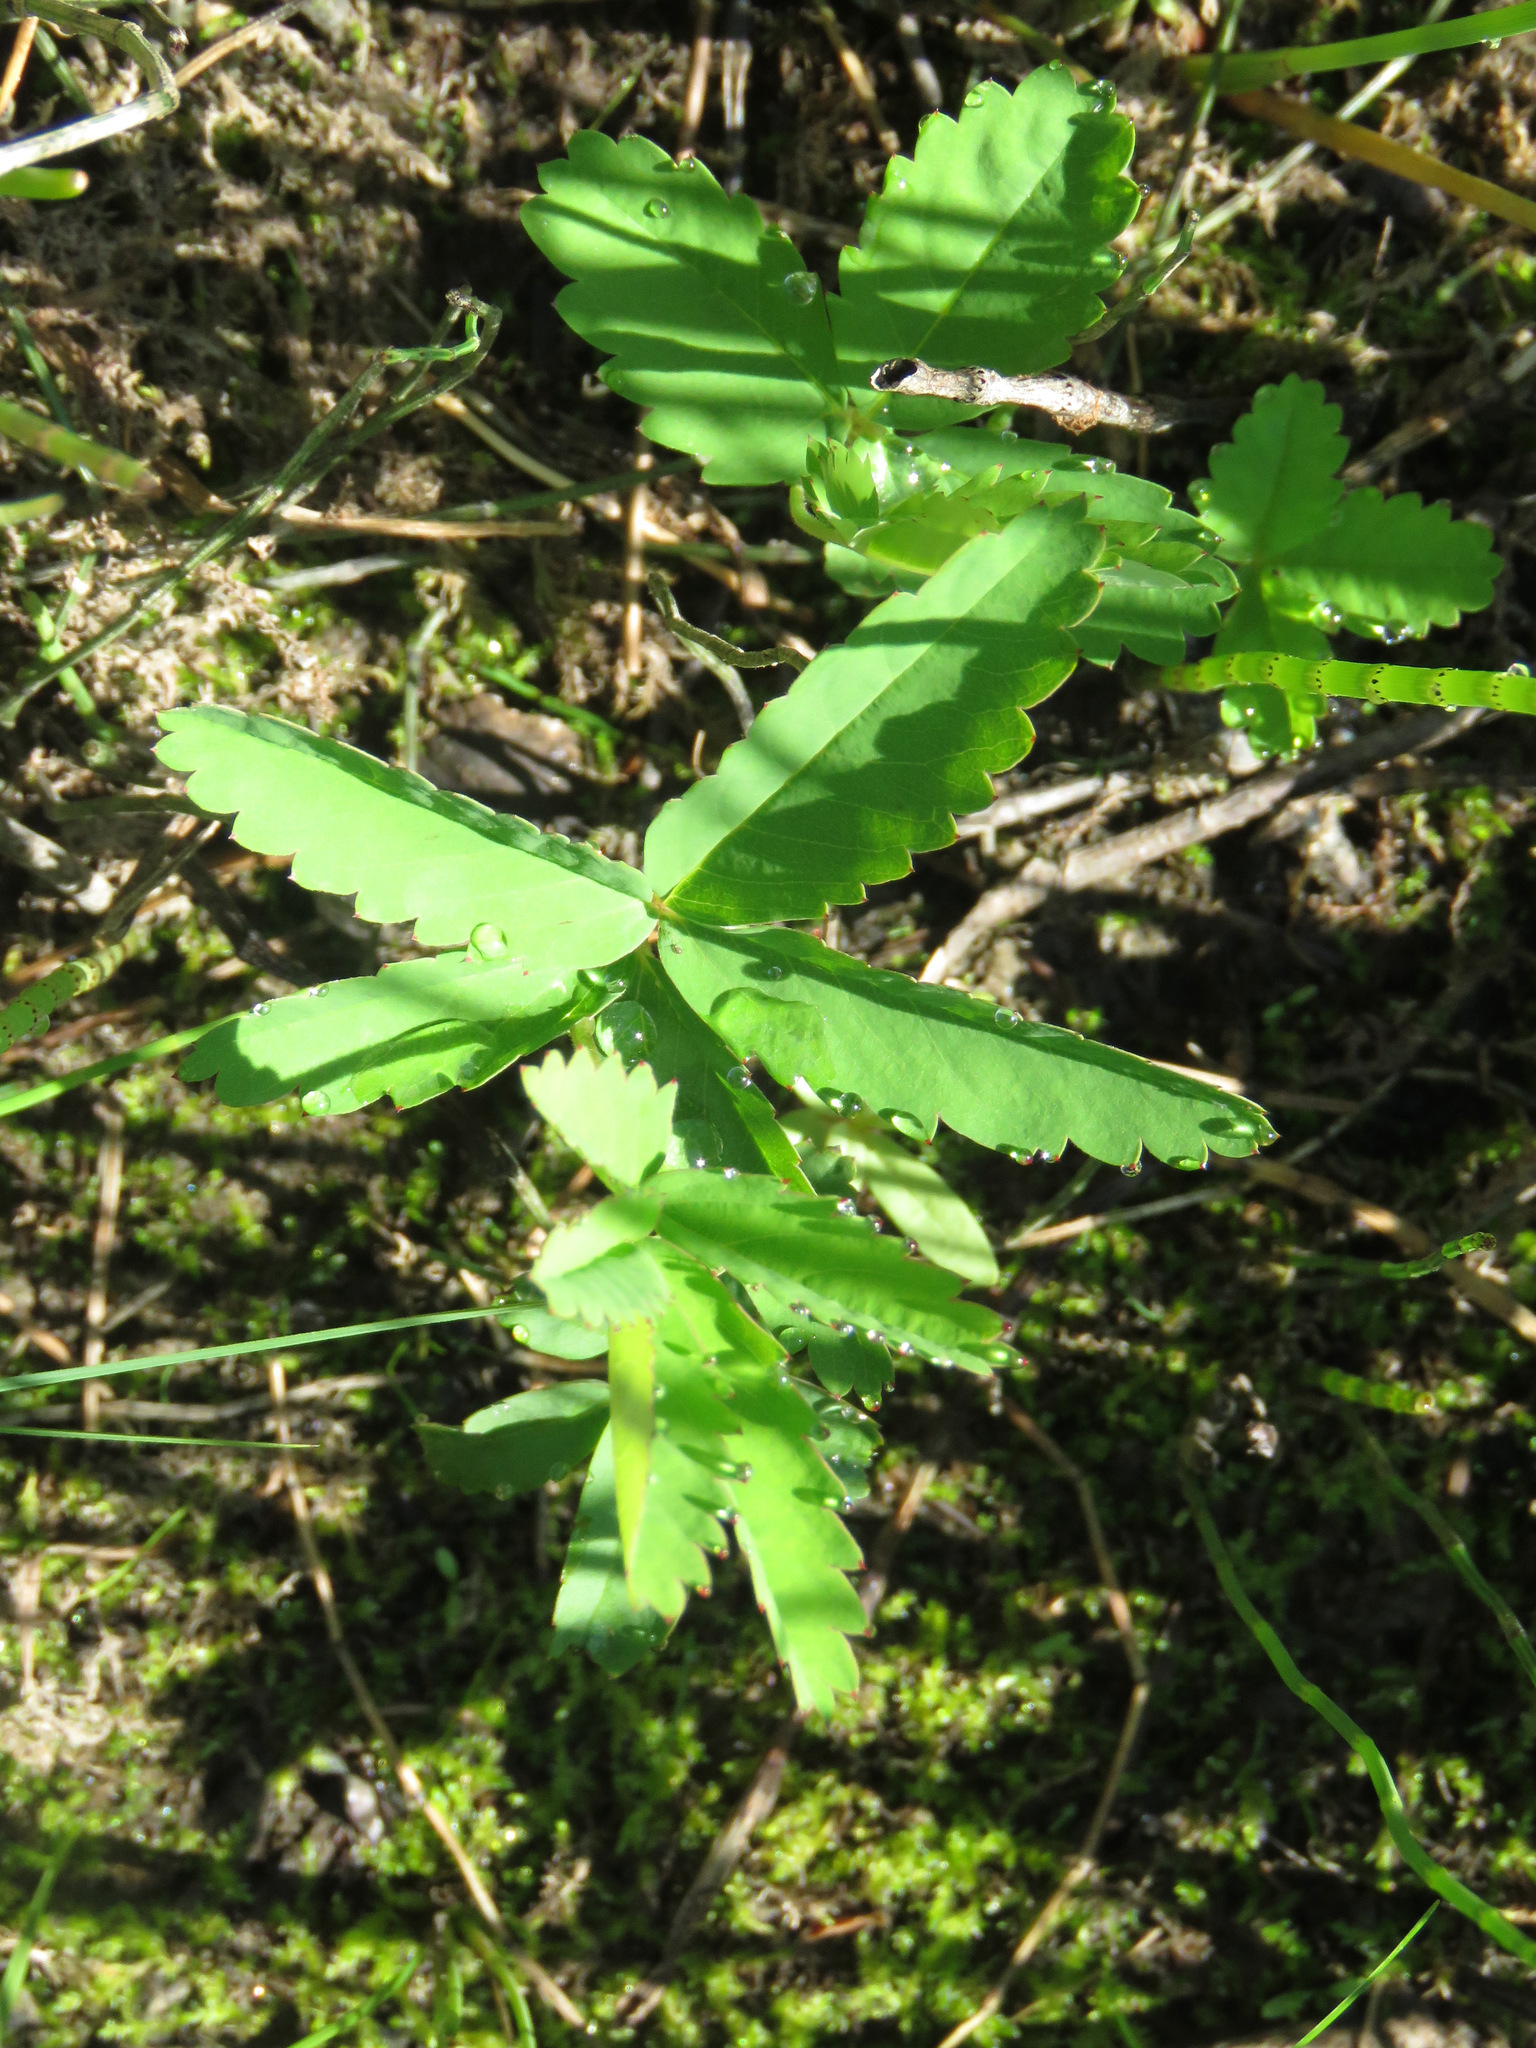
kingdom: Plantae
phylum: Tracheophyta
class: Magnoliopsida
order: Rosales
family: Rosaceae
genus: Comarum
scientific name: Comarum palustre
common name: Marsh cinquefoil
